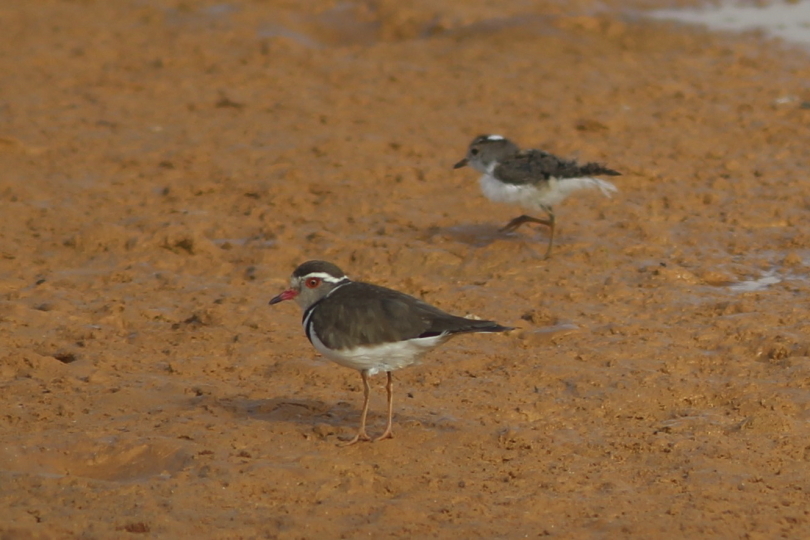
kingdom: Animalia
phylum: Chordata
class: Aves
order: Charadriiformes
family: Charadriidae
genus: Charadrius
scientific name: Charadrius tricollaris
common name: Three-banded plover
